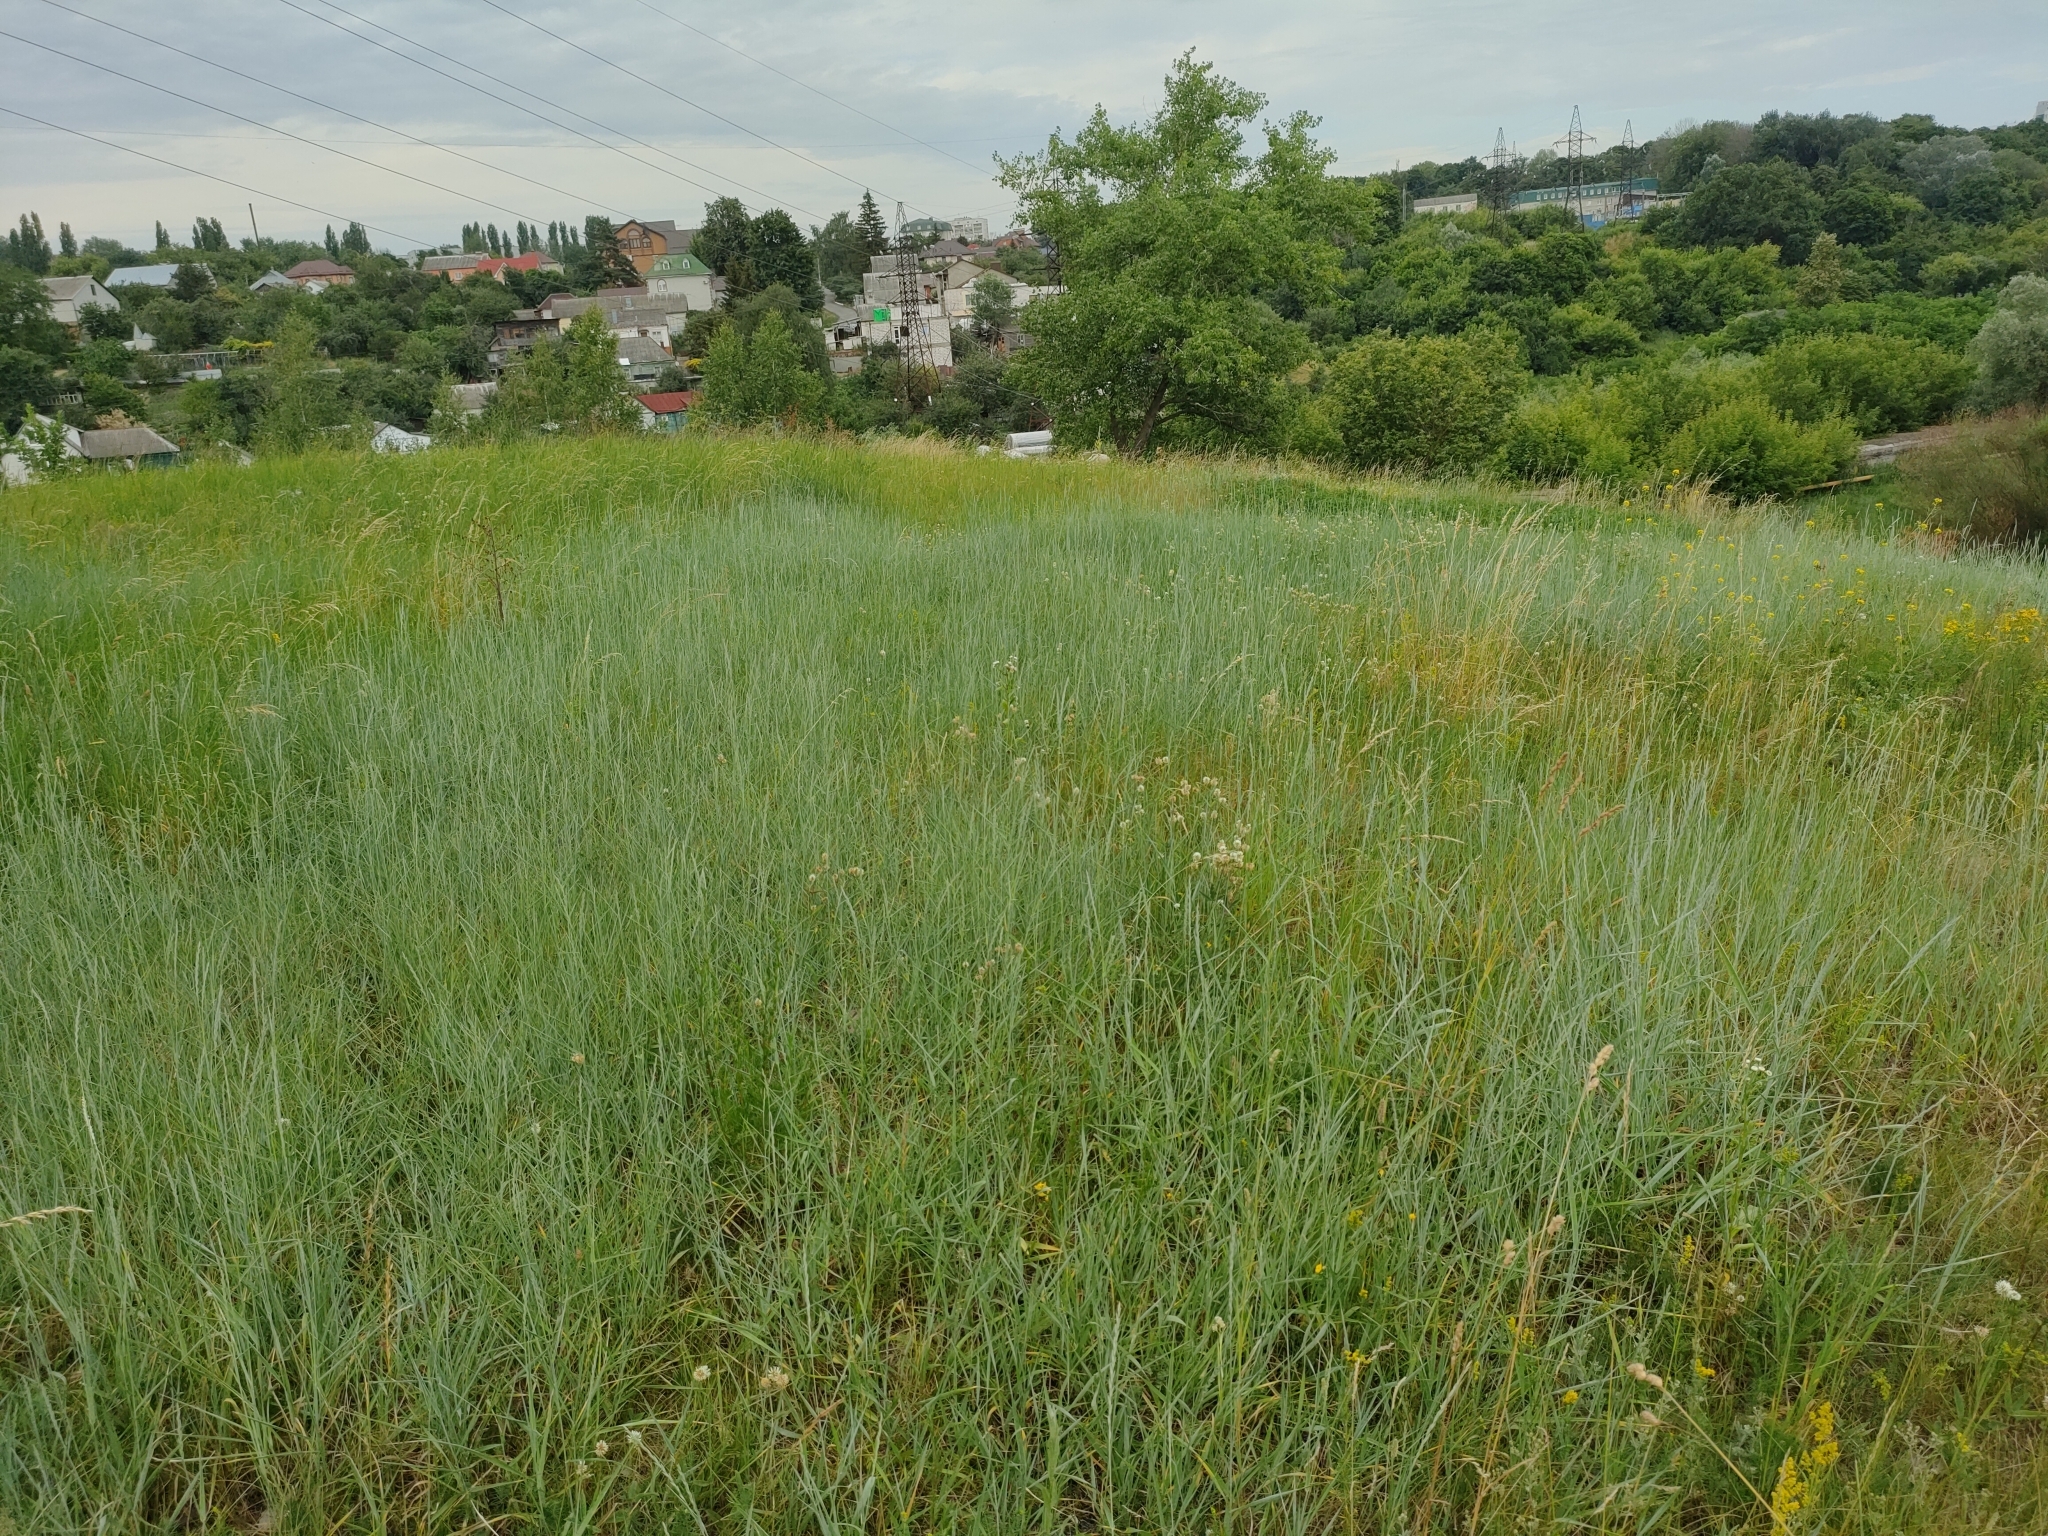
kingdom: Plantae
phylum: Tracheophyta
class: Liliopsida
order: Poales
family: Poaceae
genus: Thinopyrum
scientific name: Thinopyrum intermedium
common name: Intermediate wheatgrass
